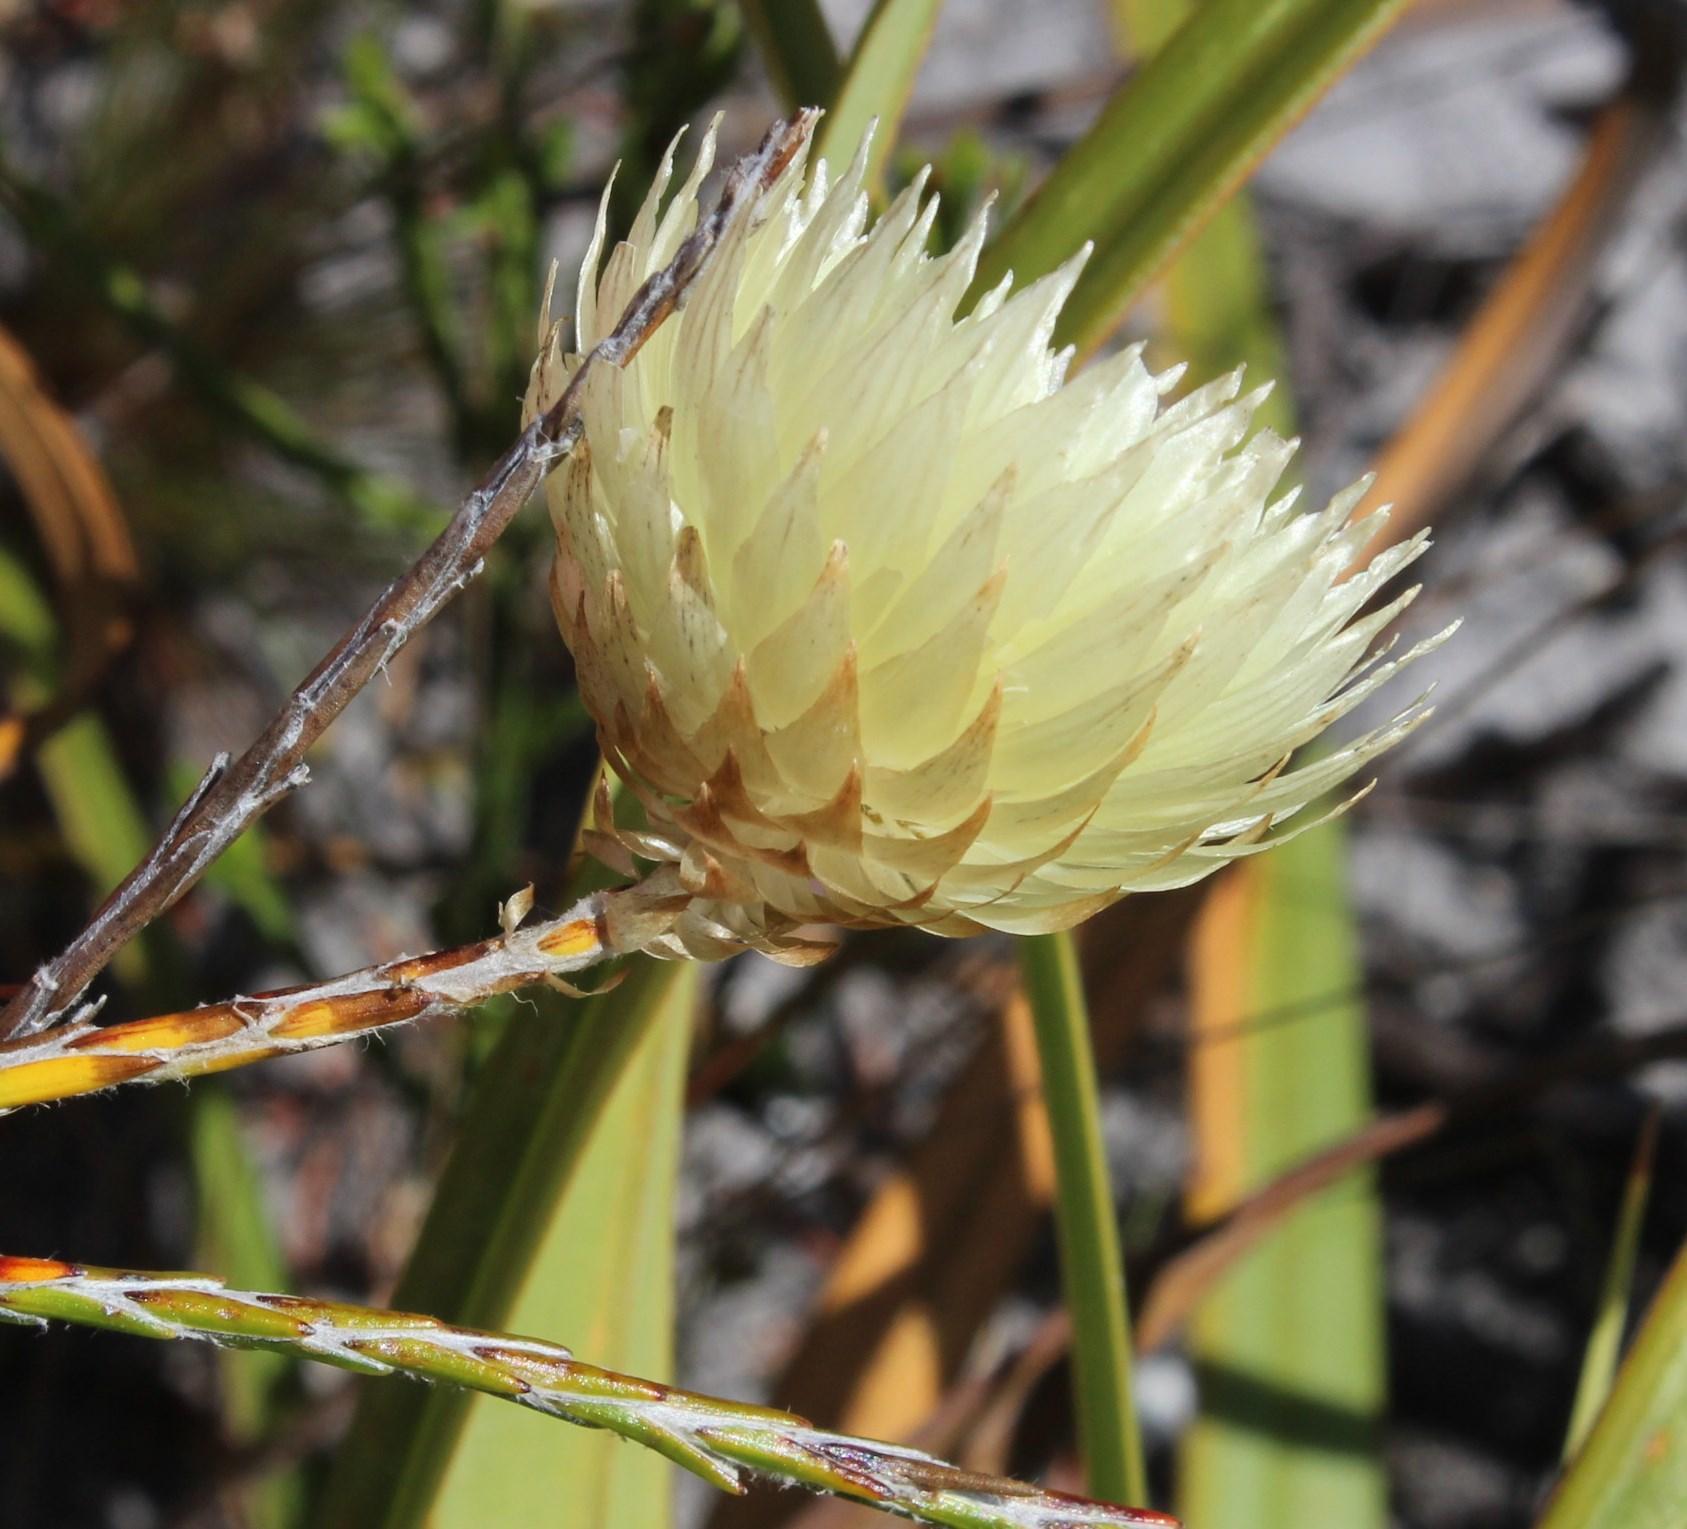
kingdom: Plantae
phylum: Tracheophyta
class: Magnoliopsida
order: Asterales
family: Asteraceae
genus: Edmondia
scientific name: Edmondia fasciculata
